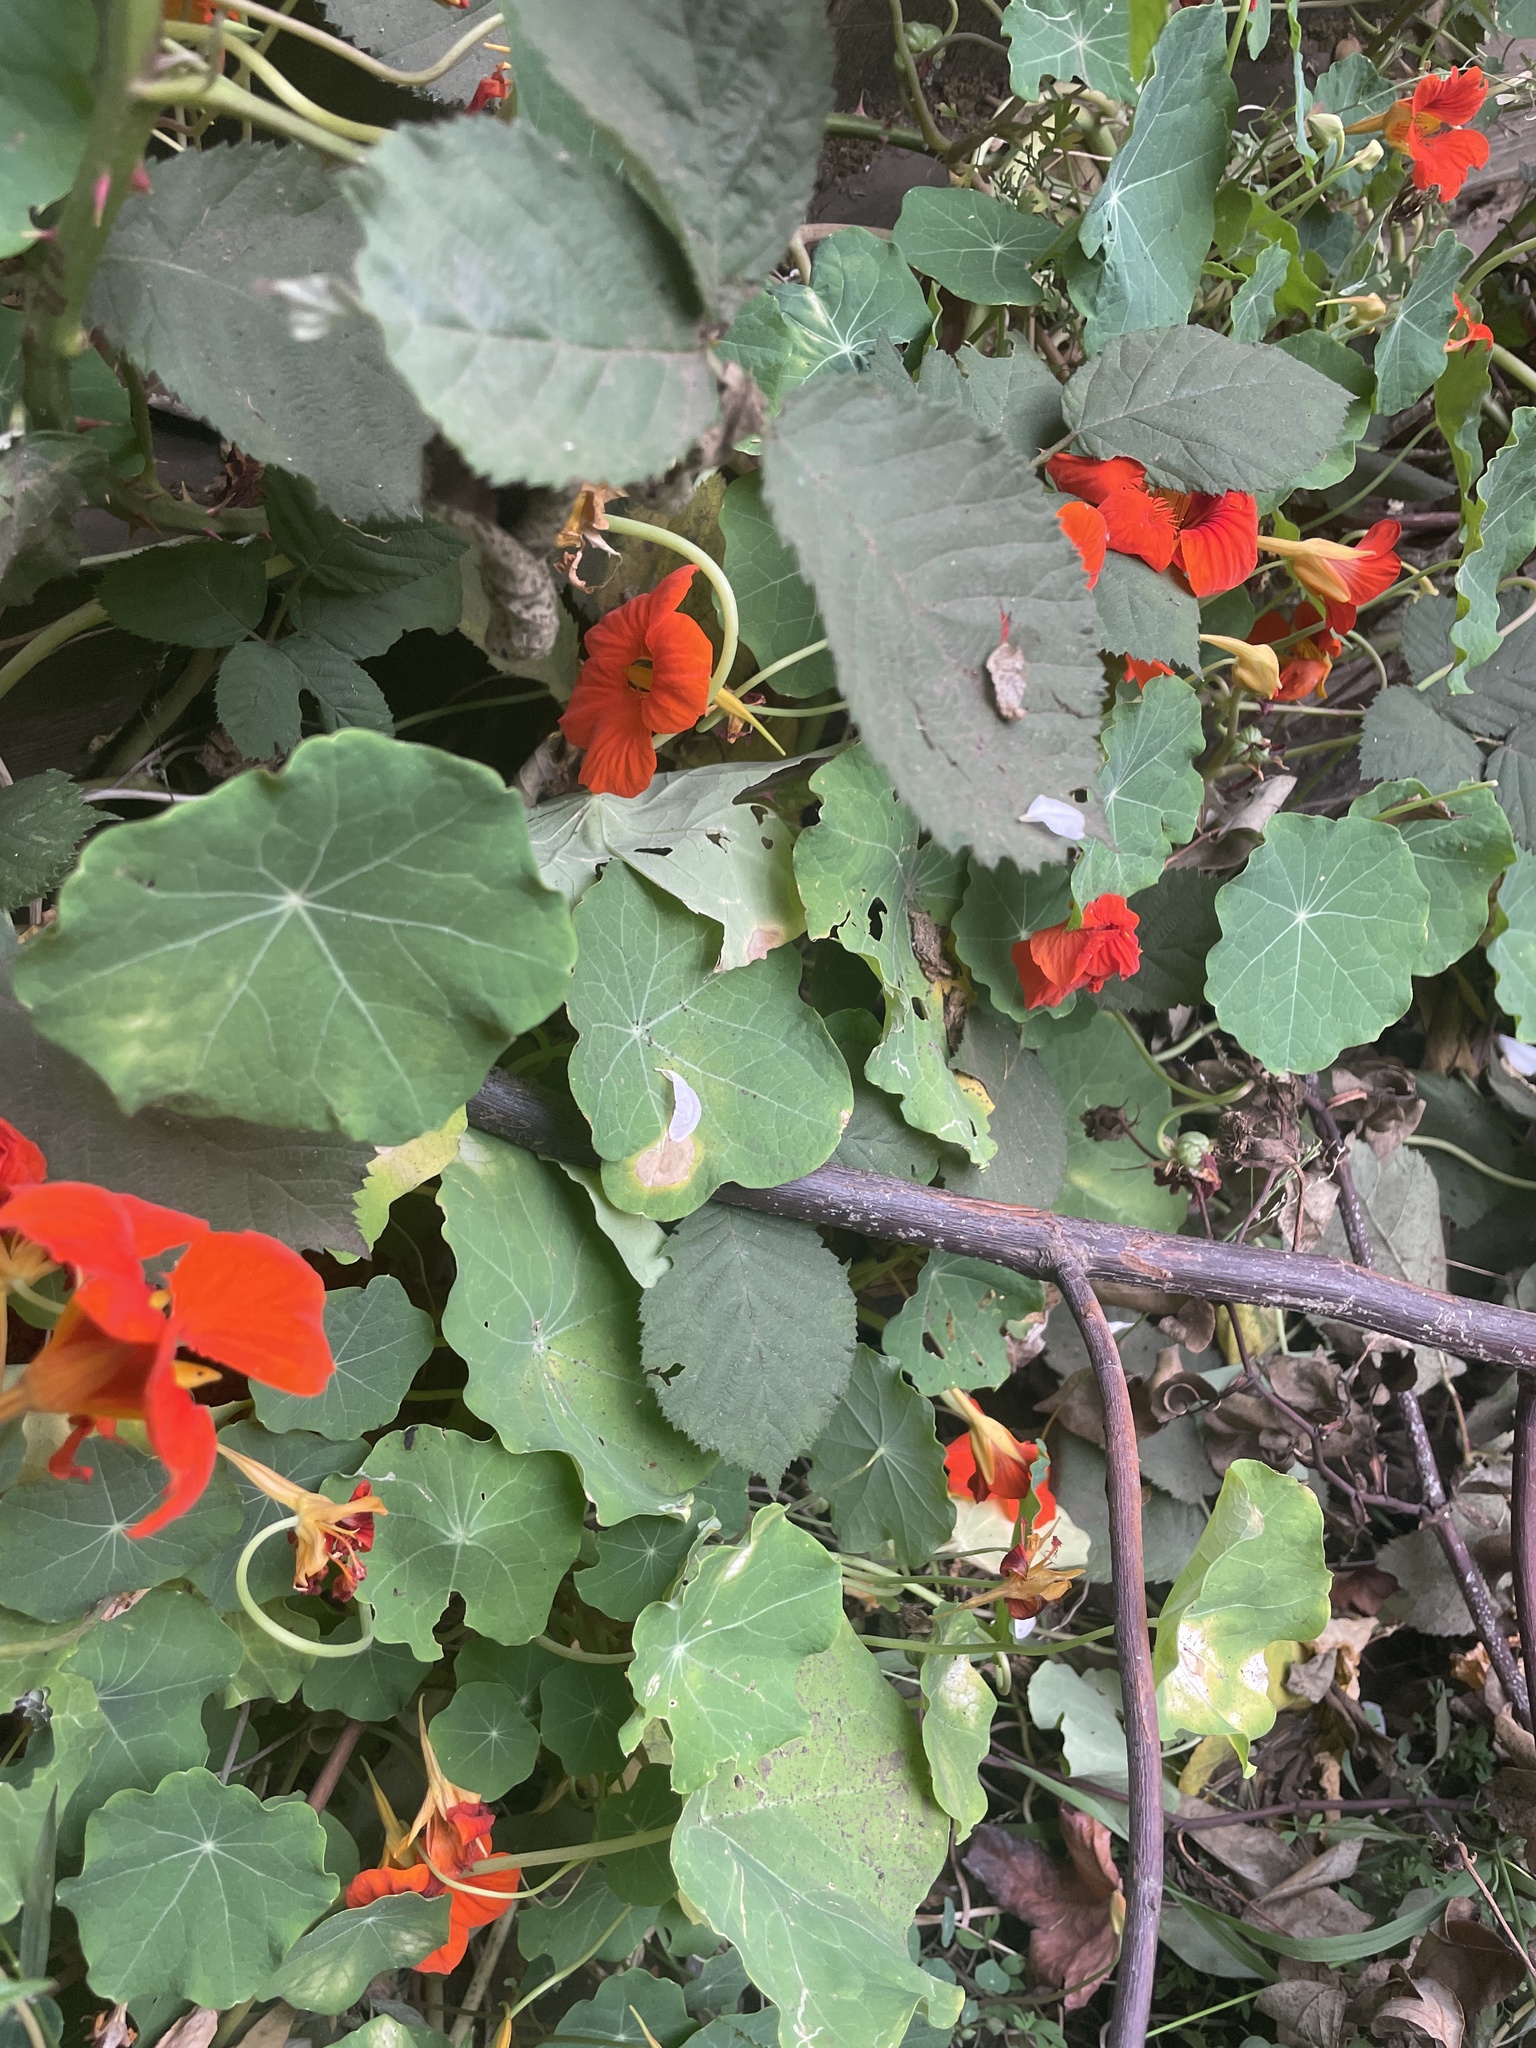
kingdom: Plantae
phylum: Tracheophyta
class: Magnoliopsida
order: Brassicales
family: Tropaeolaceae
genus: Tropaeolum
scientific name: Tropaeolum majus
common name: Nasturtium
